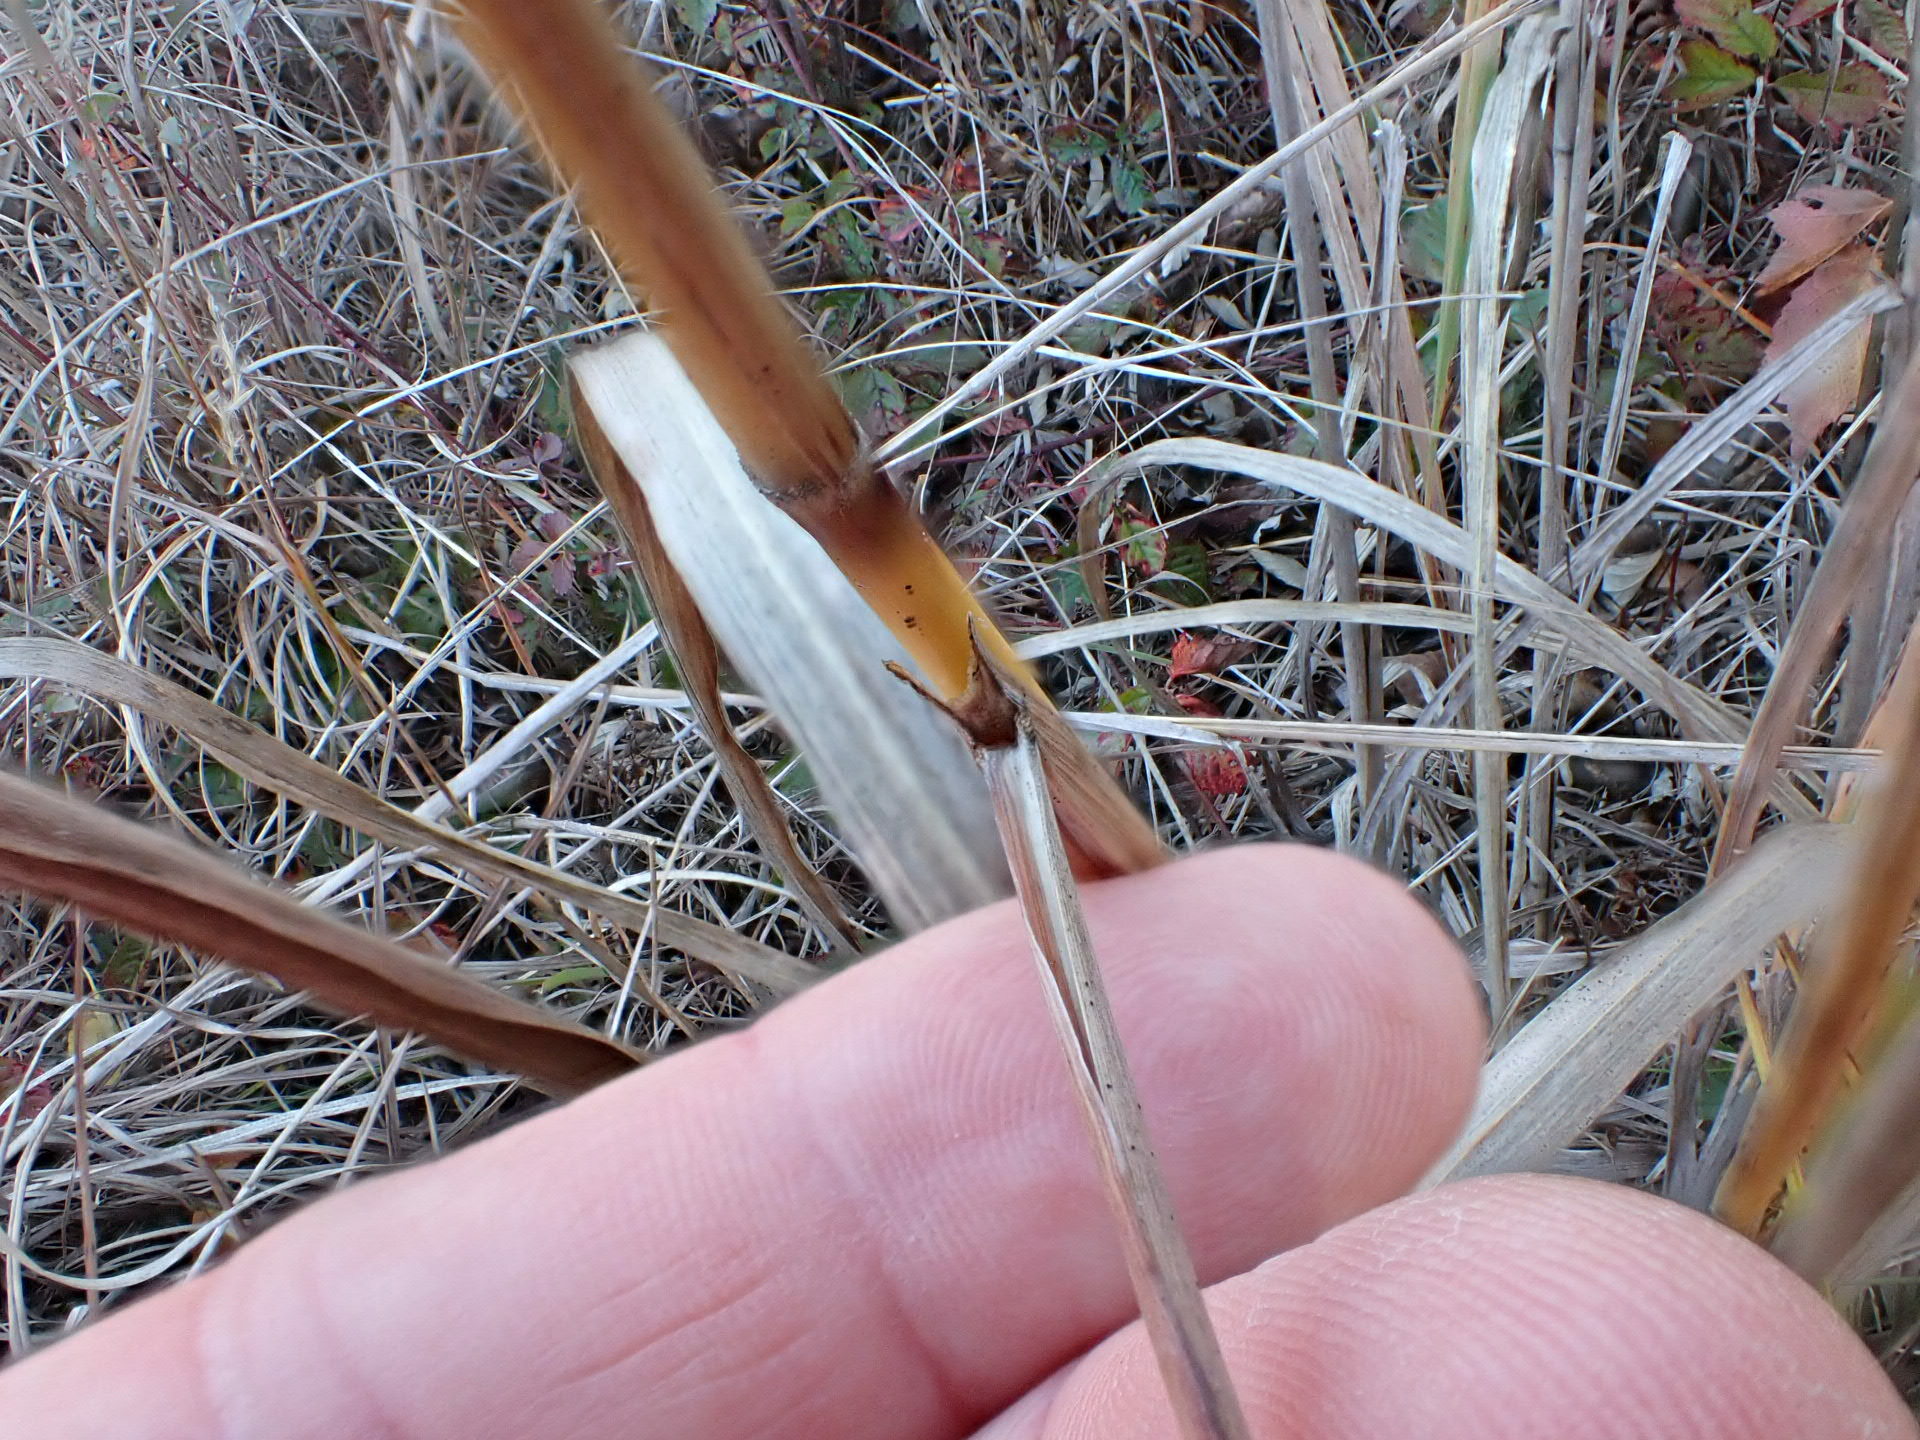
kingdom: Plantae
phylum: Tracheophyta
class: Liliopsida
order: Poales
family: Poaceae
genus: Sorghastrum
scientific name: Sorghastrum nutans
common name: Indian grass
